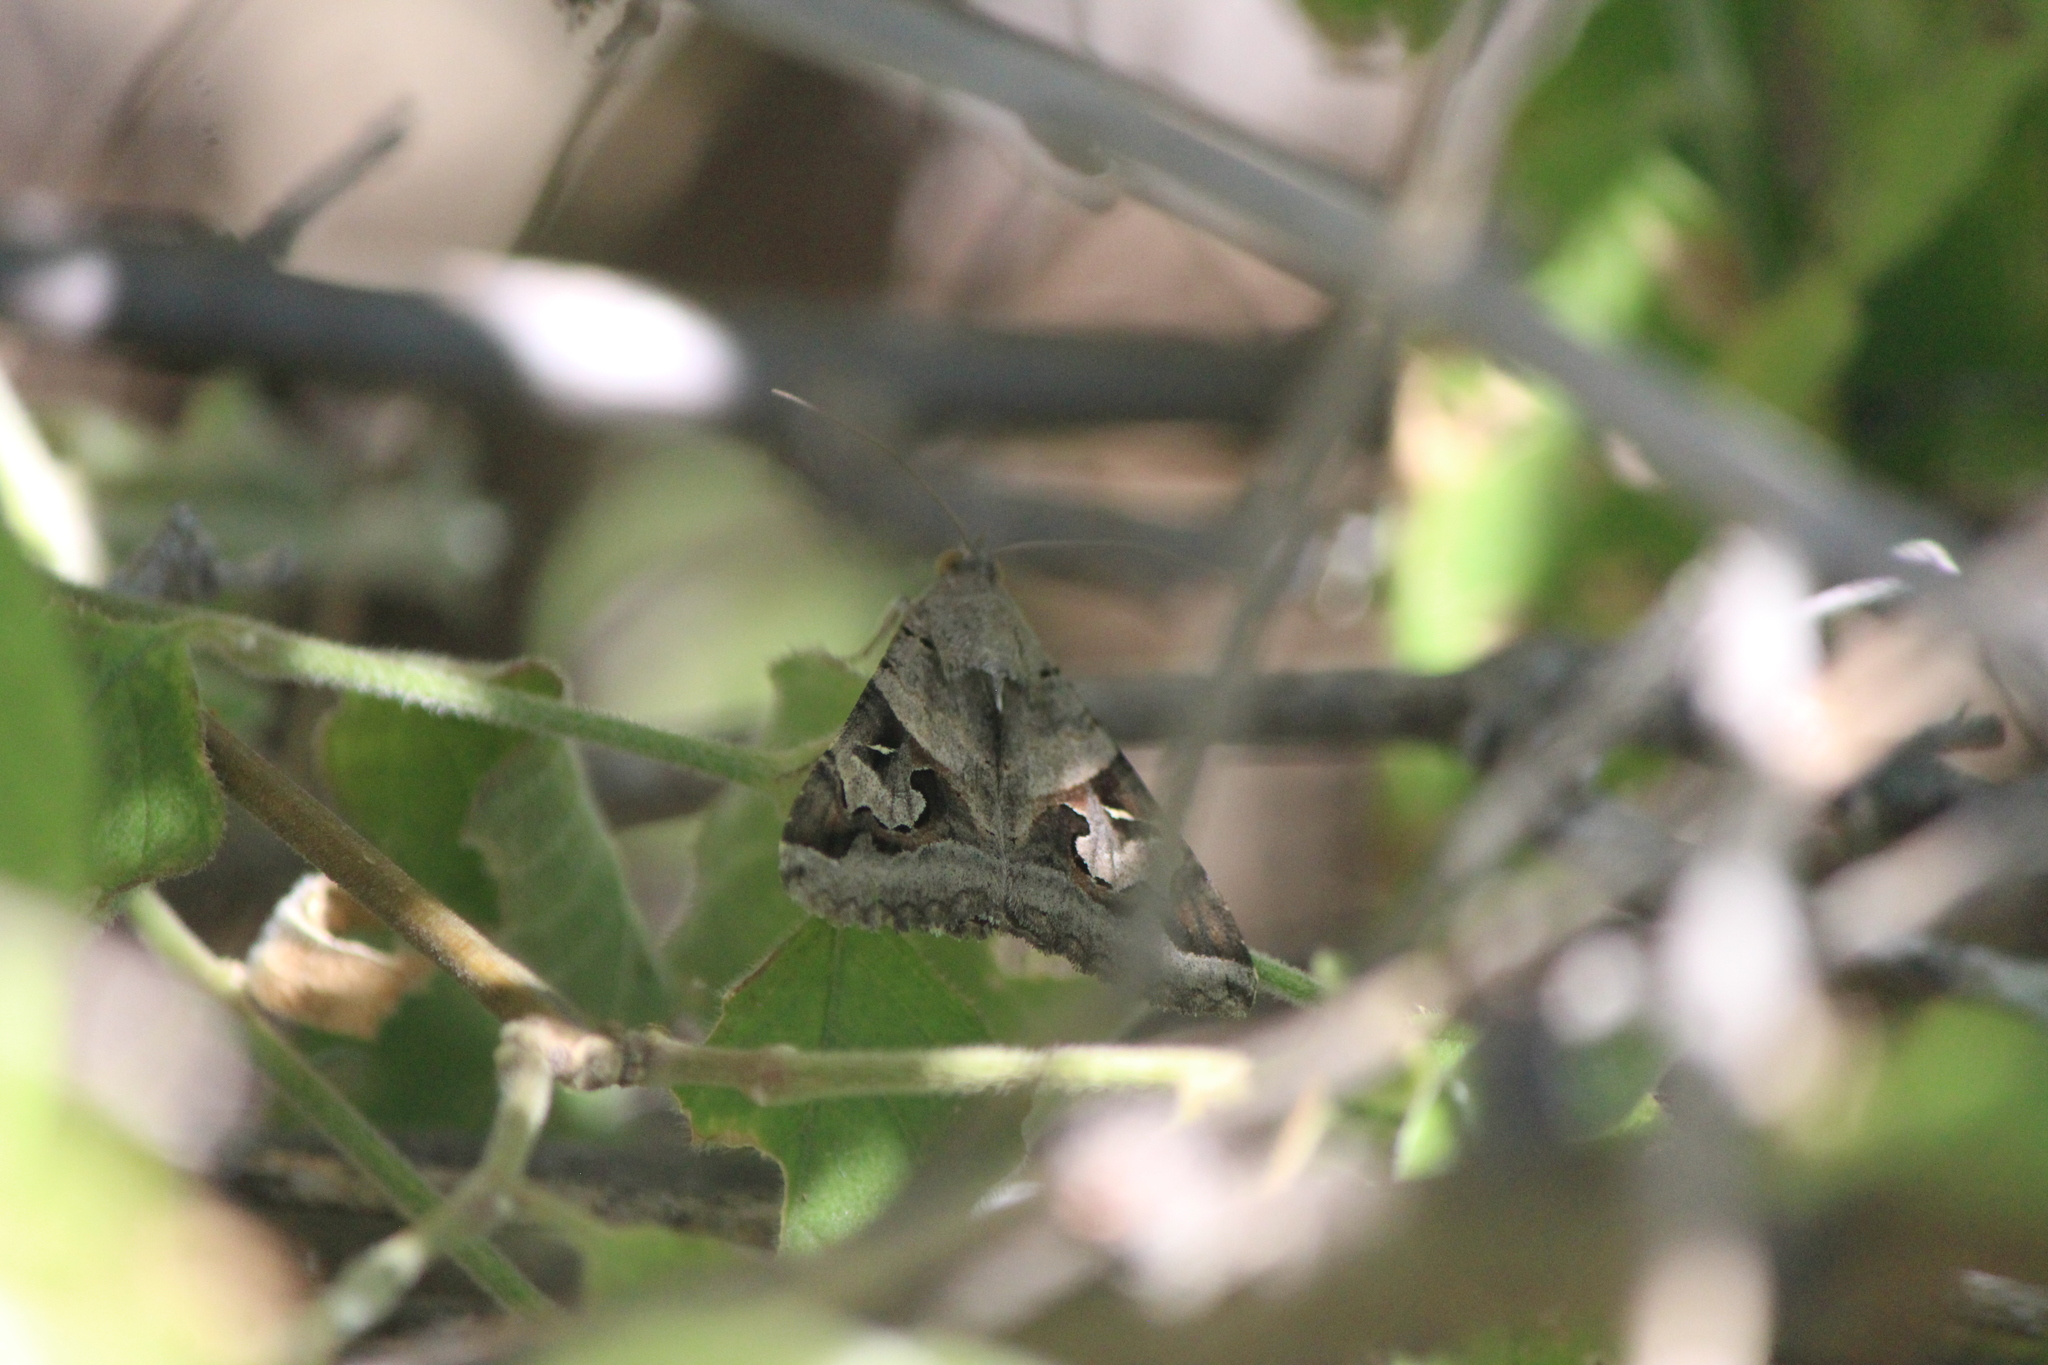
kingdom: Animalia
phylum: Arthropoda
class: Insecta
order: Lepidoptera
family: Erebidae
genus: Melipotis
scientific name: Melipotis indomita
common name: Moth
